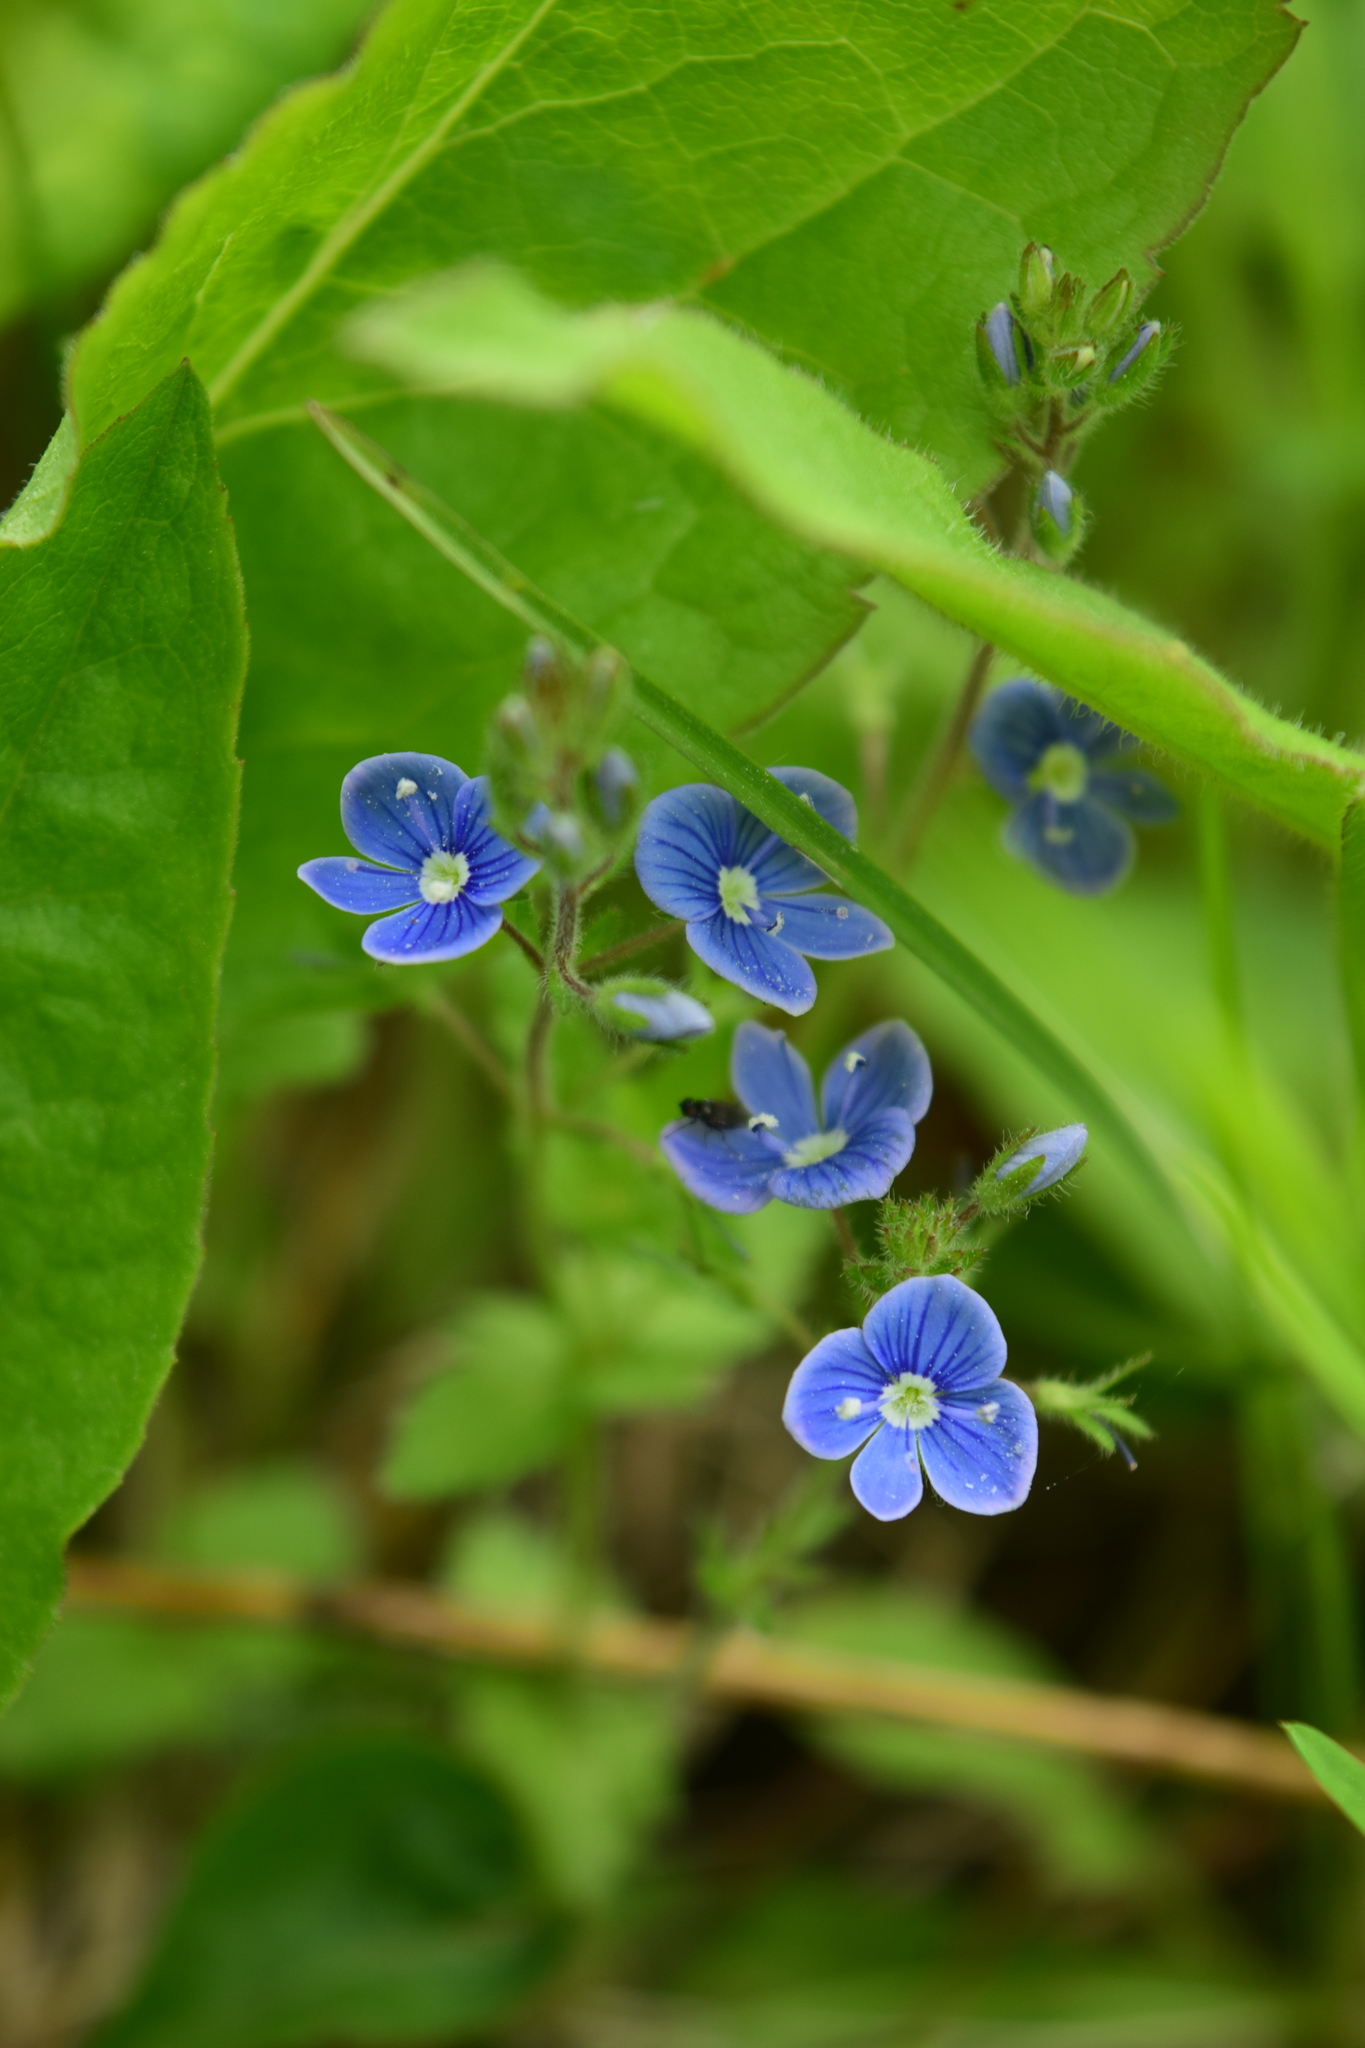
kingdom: Plantae
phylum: Tracheophyta
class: Magnoliopsida
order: Lamiales
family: Plantaginaceae
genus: Veronica
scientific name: Veronica chamaedrys
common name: Germander speedwell
